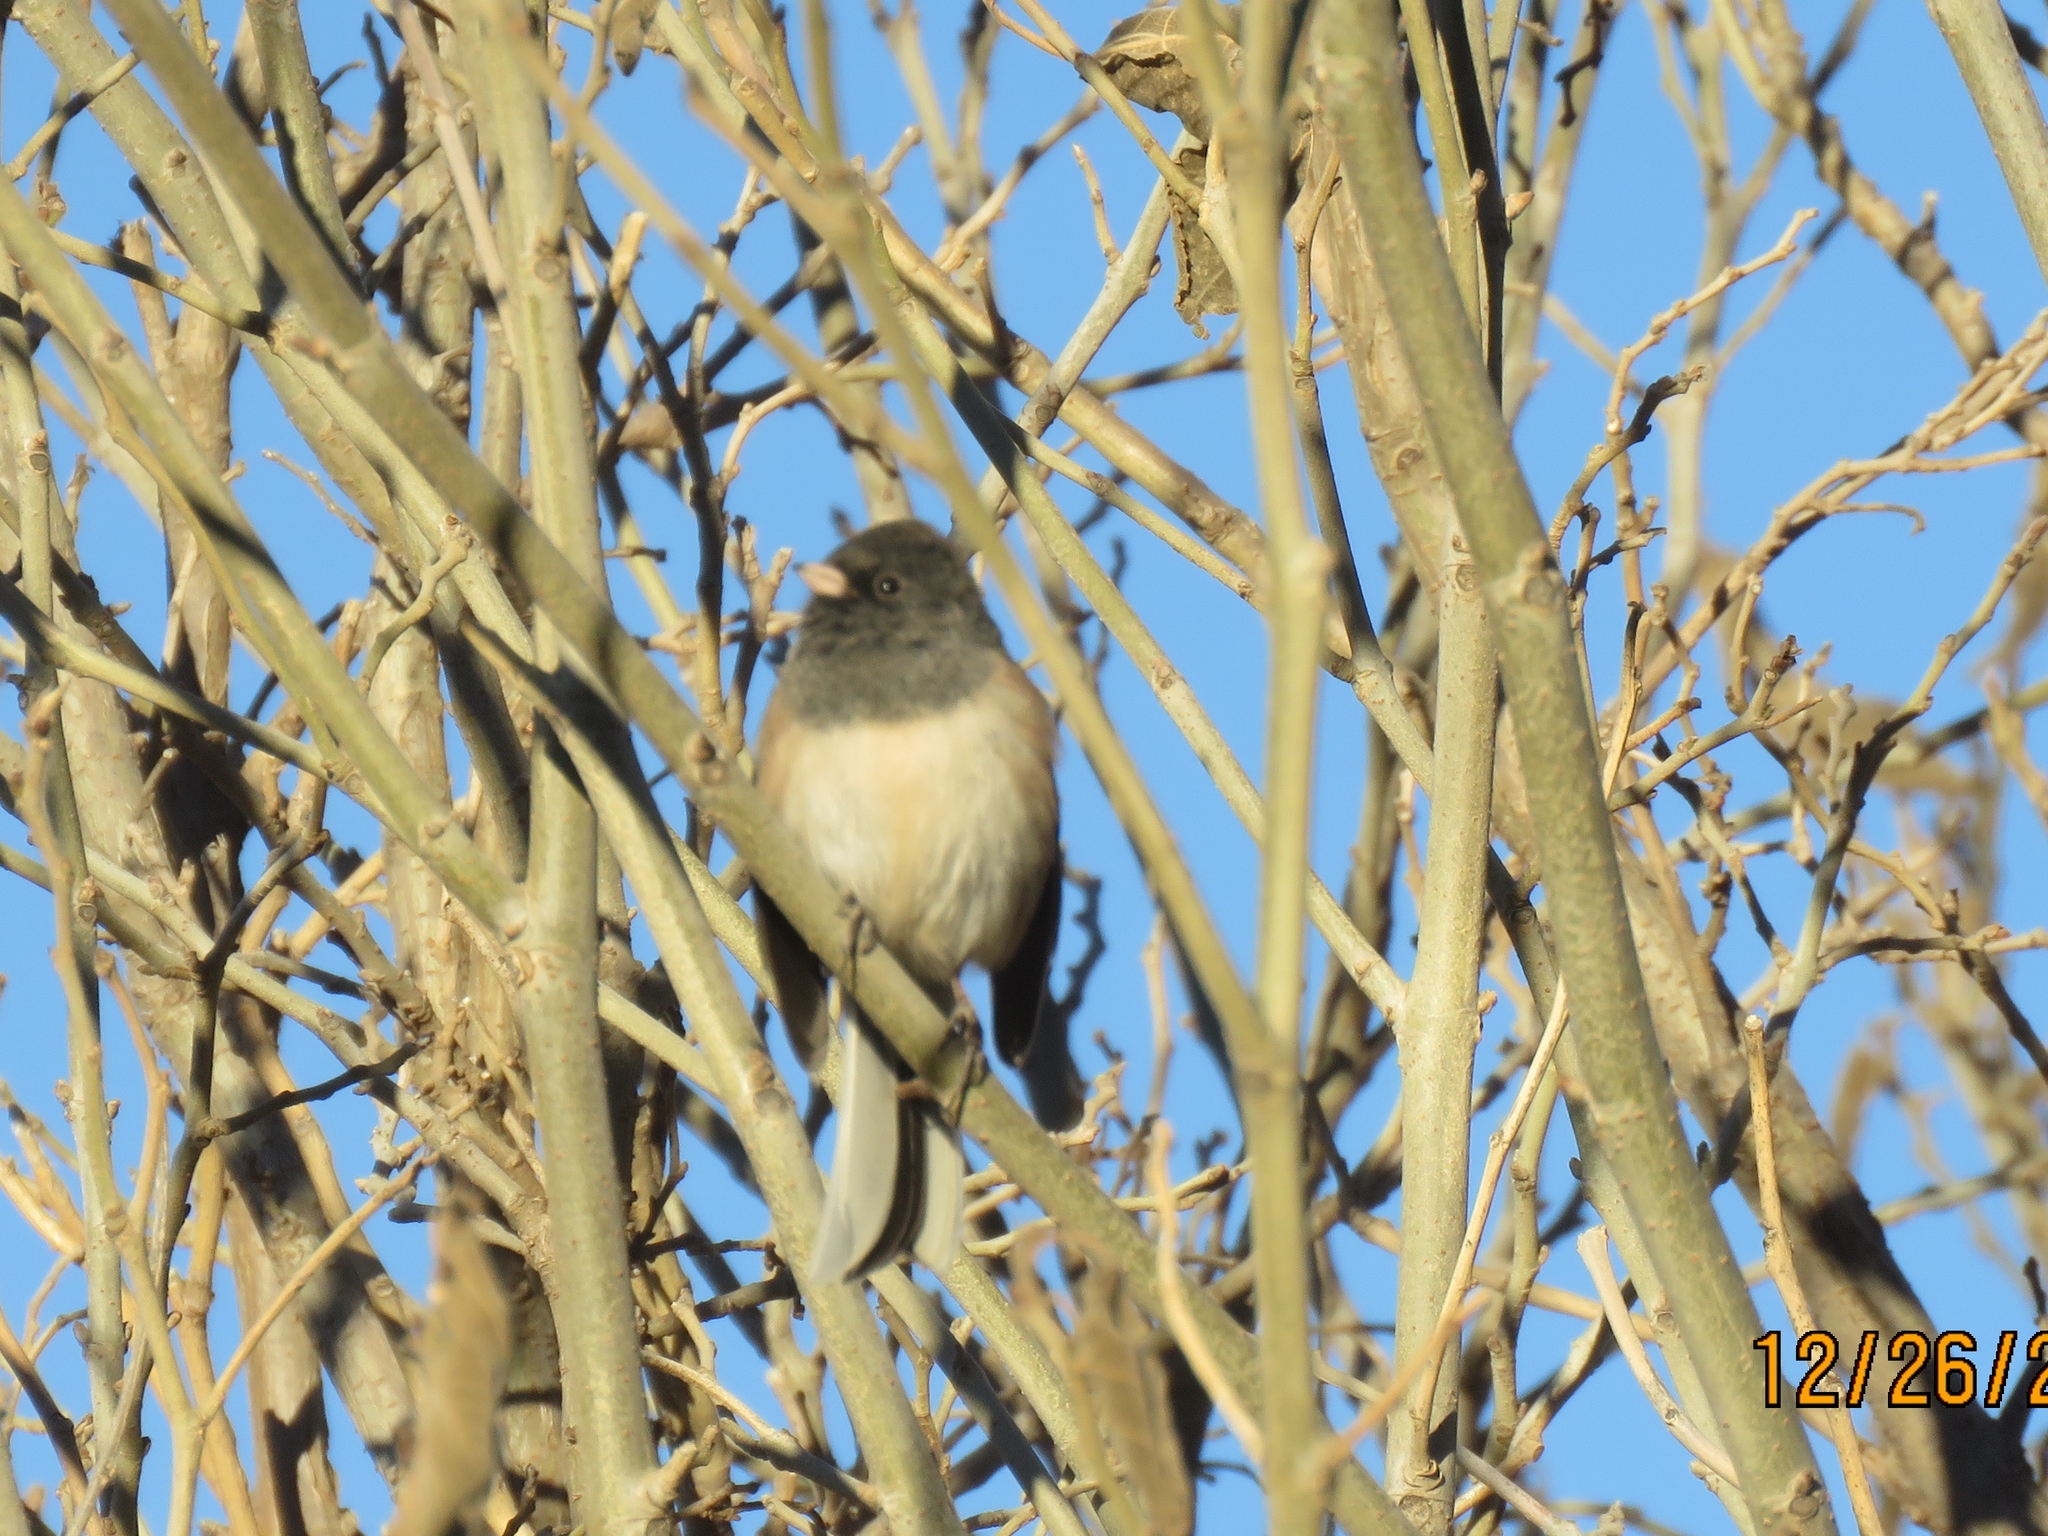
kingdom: Animalia
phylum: Chordata
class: Aves
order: Passeriformes
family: Passerellidae
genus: Junco
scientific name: Junco hyemalis
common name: Dark-eyed junco
